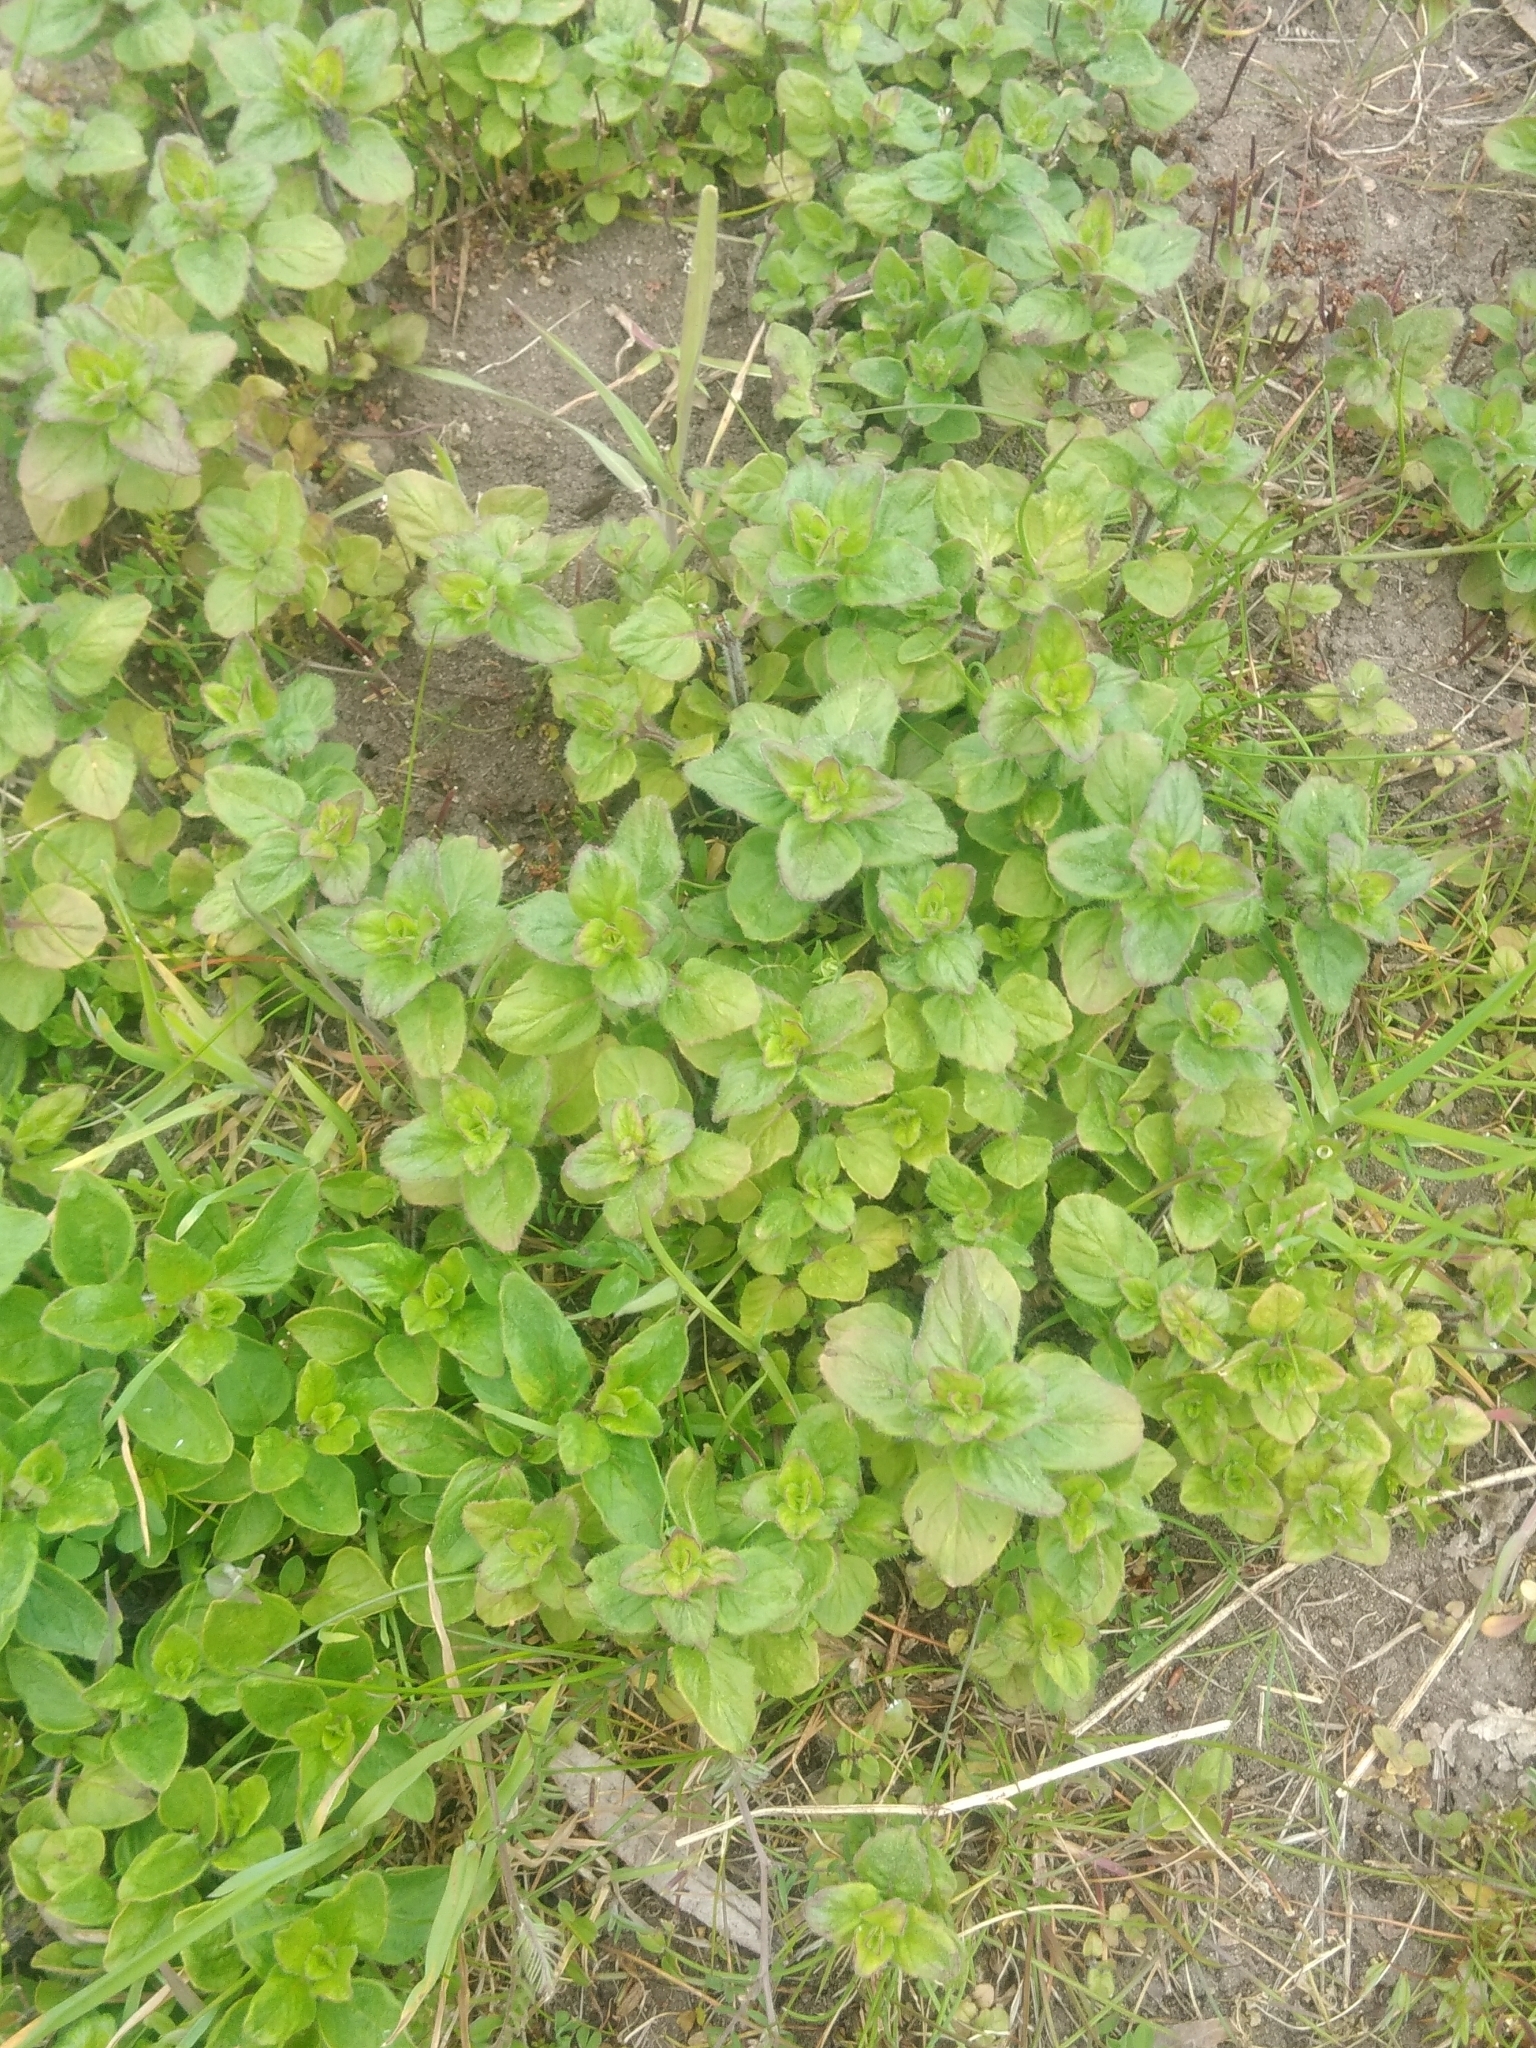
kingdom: Plantae
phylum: Tracheophyta
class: Magnoliopsida
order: Lamiales
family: Lamiaceae
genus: Origanum
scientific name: Origanum vulgare
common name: Wild marjoram
